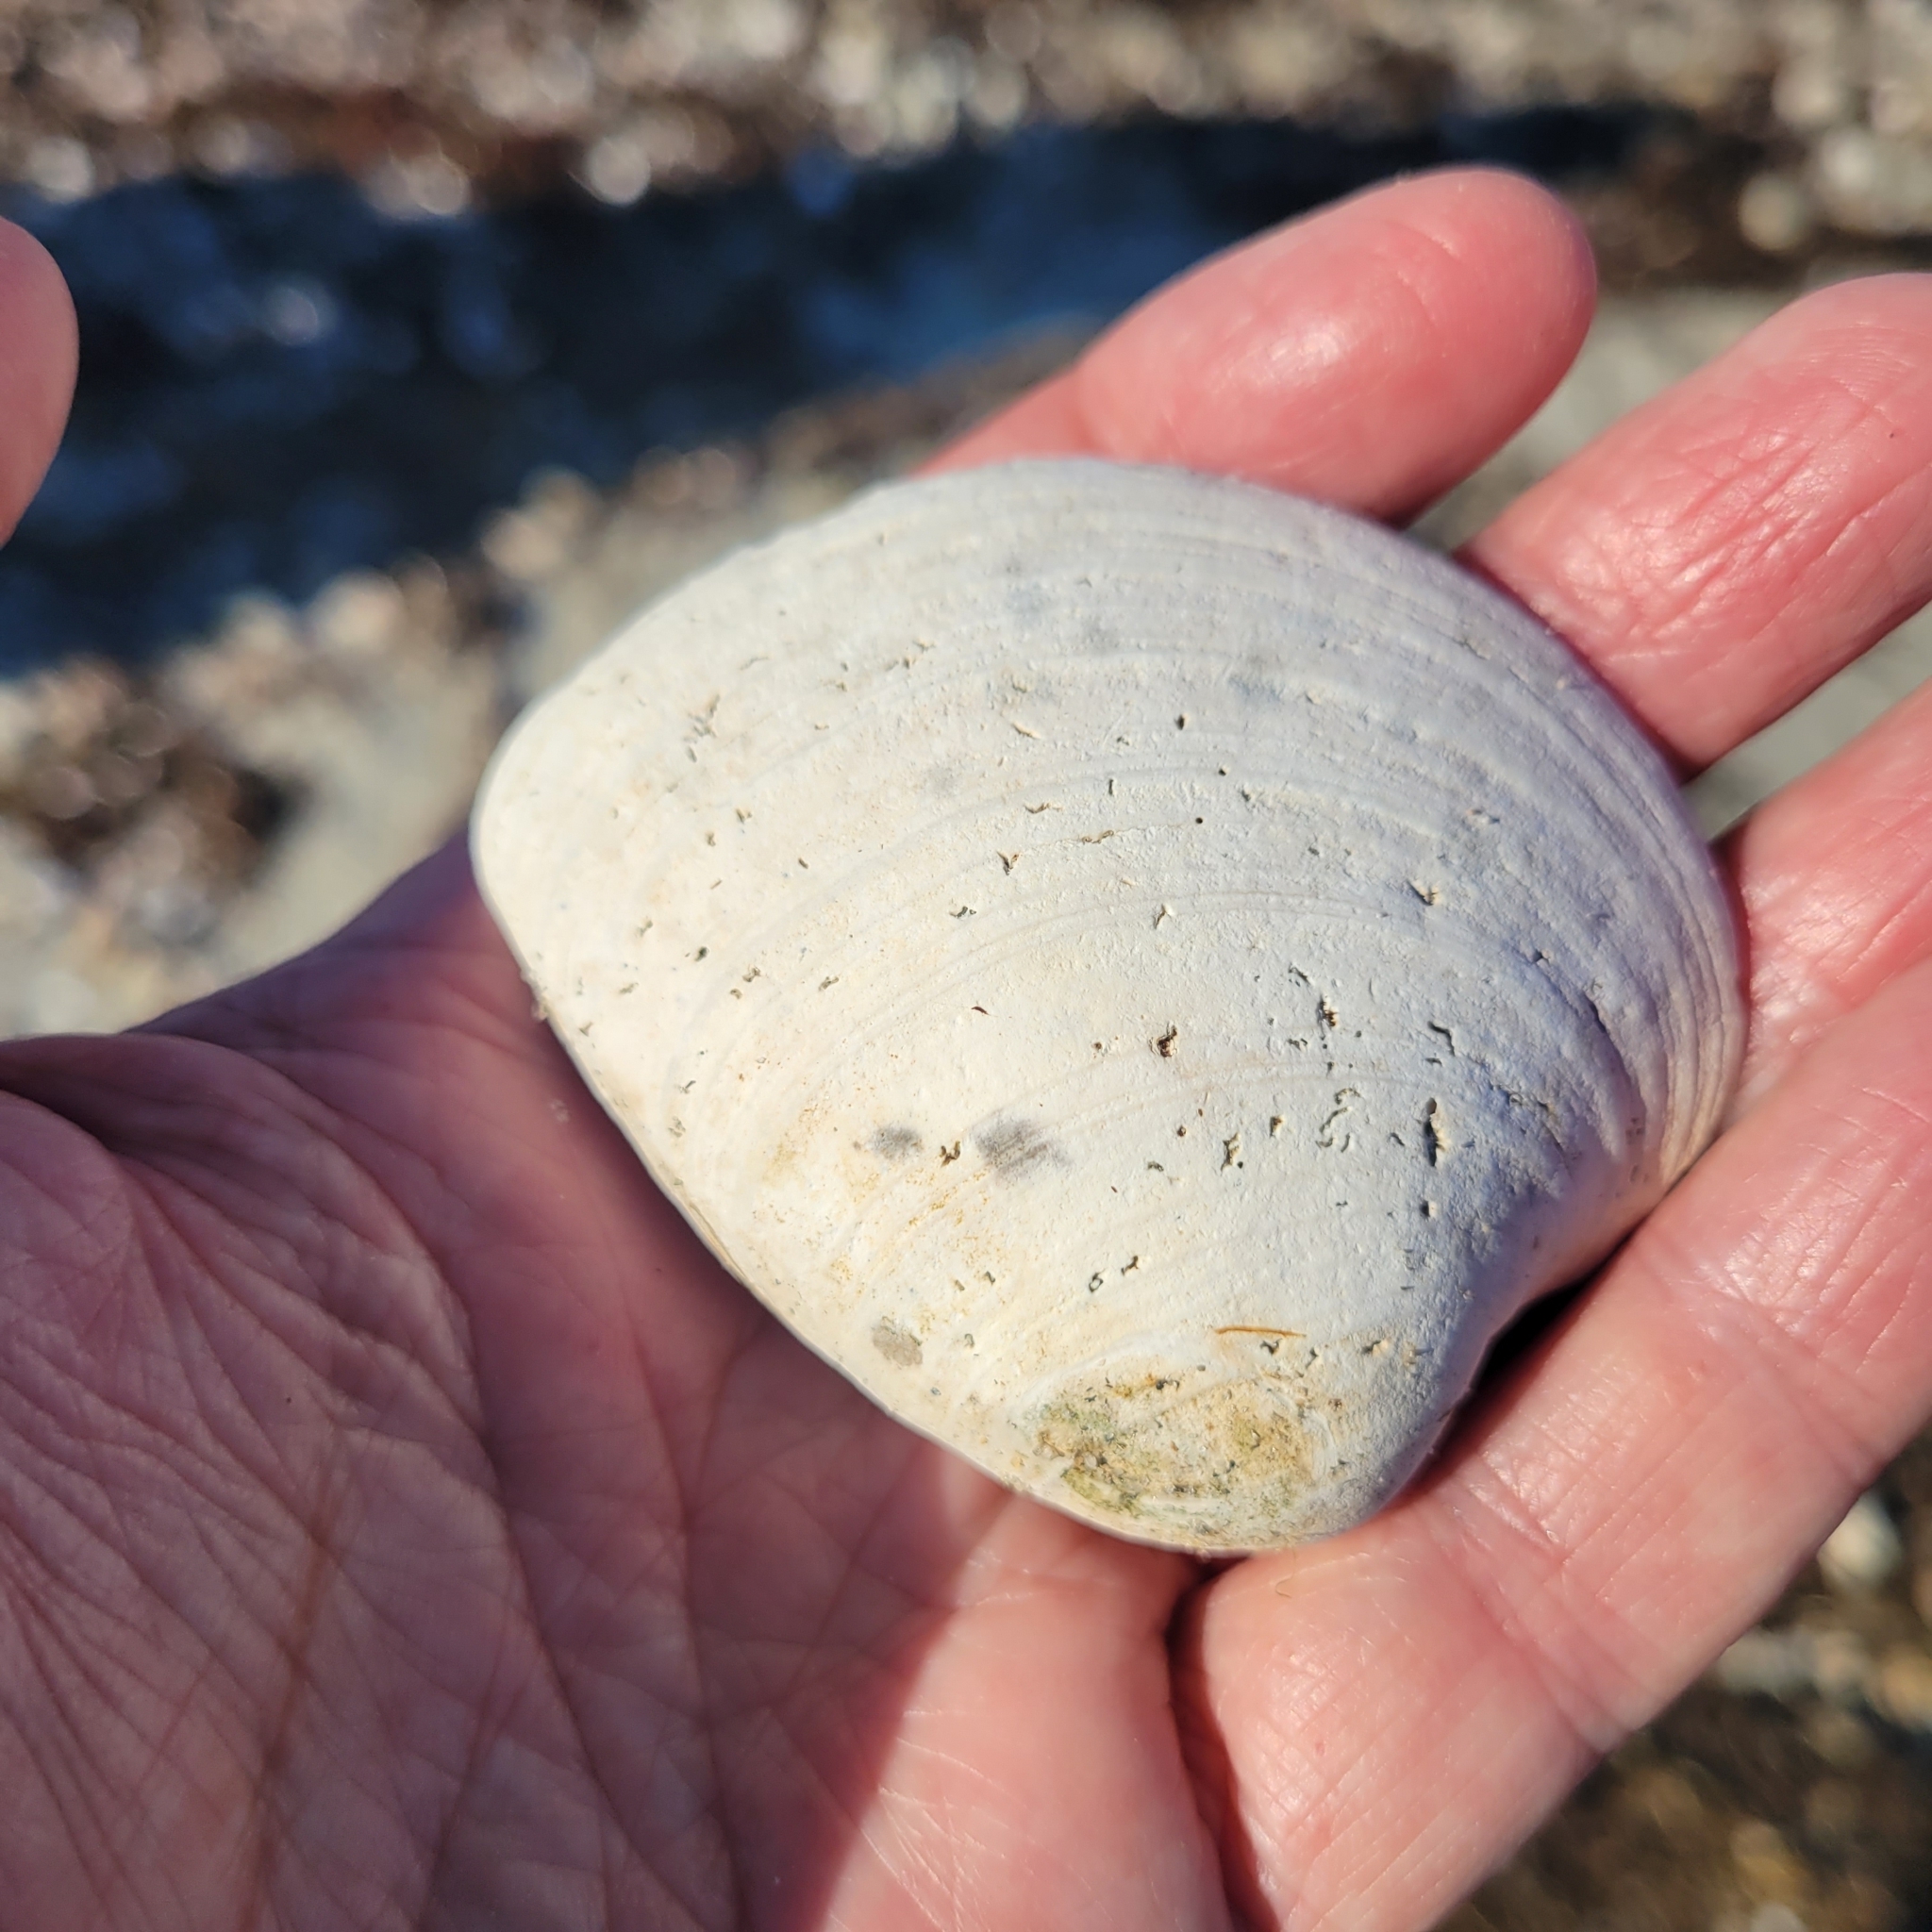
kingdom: Animalia
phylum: Mollusca
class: Bivalvia
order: Venerida
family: Veneridae
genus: Mercenaria
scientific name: Mercenaria mercenaria
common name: American hard-shelled clam
